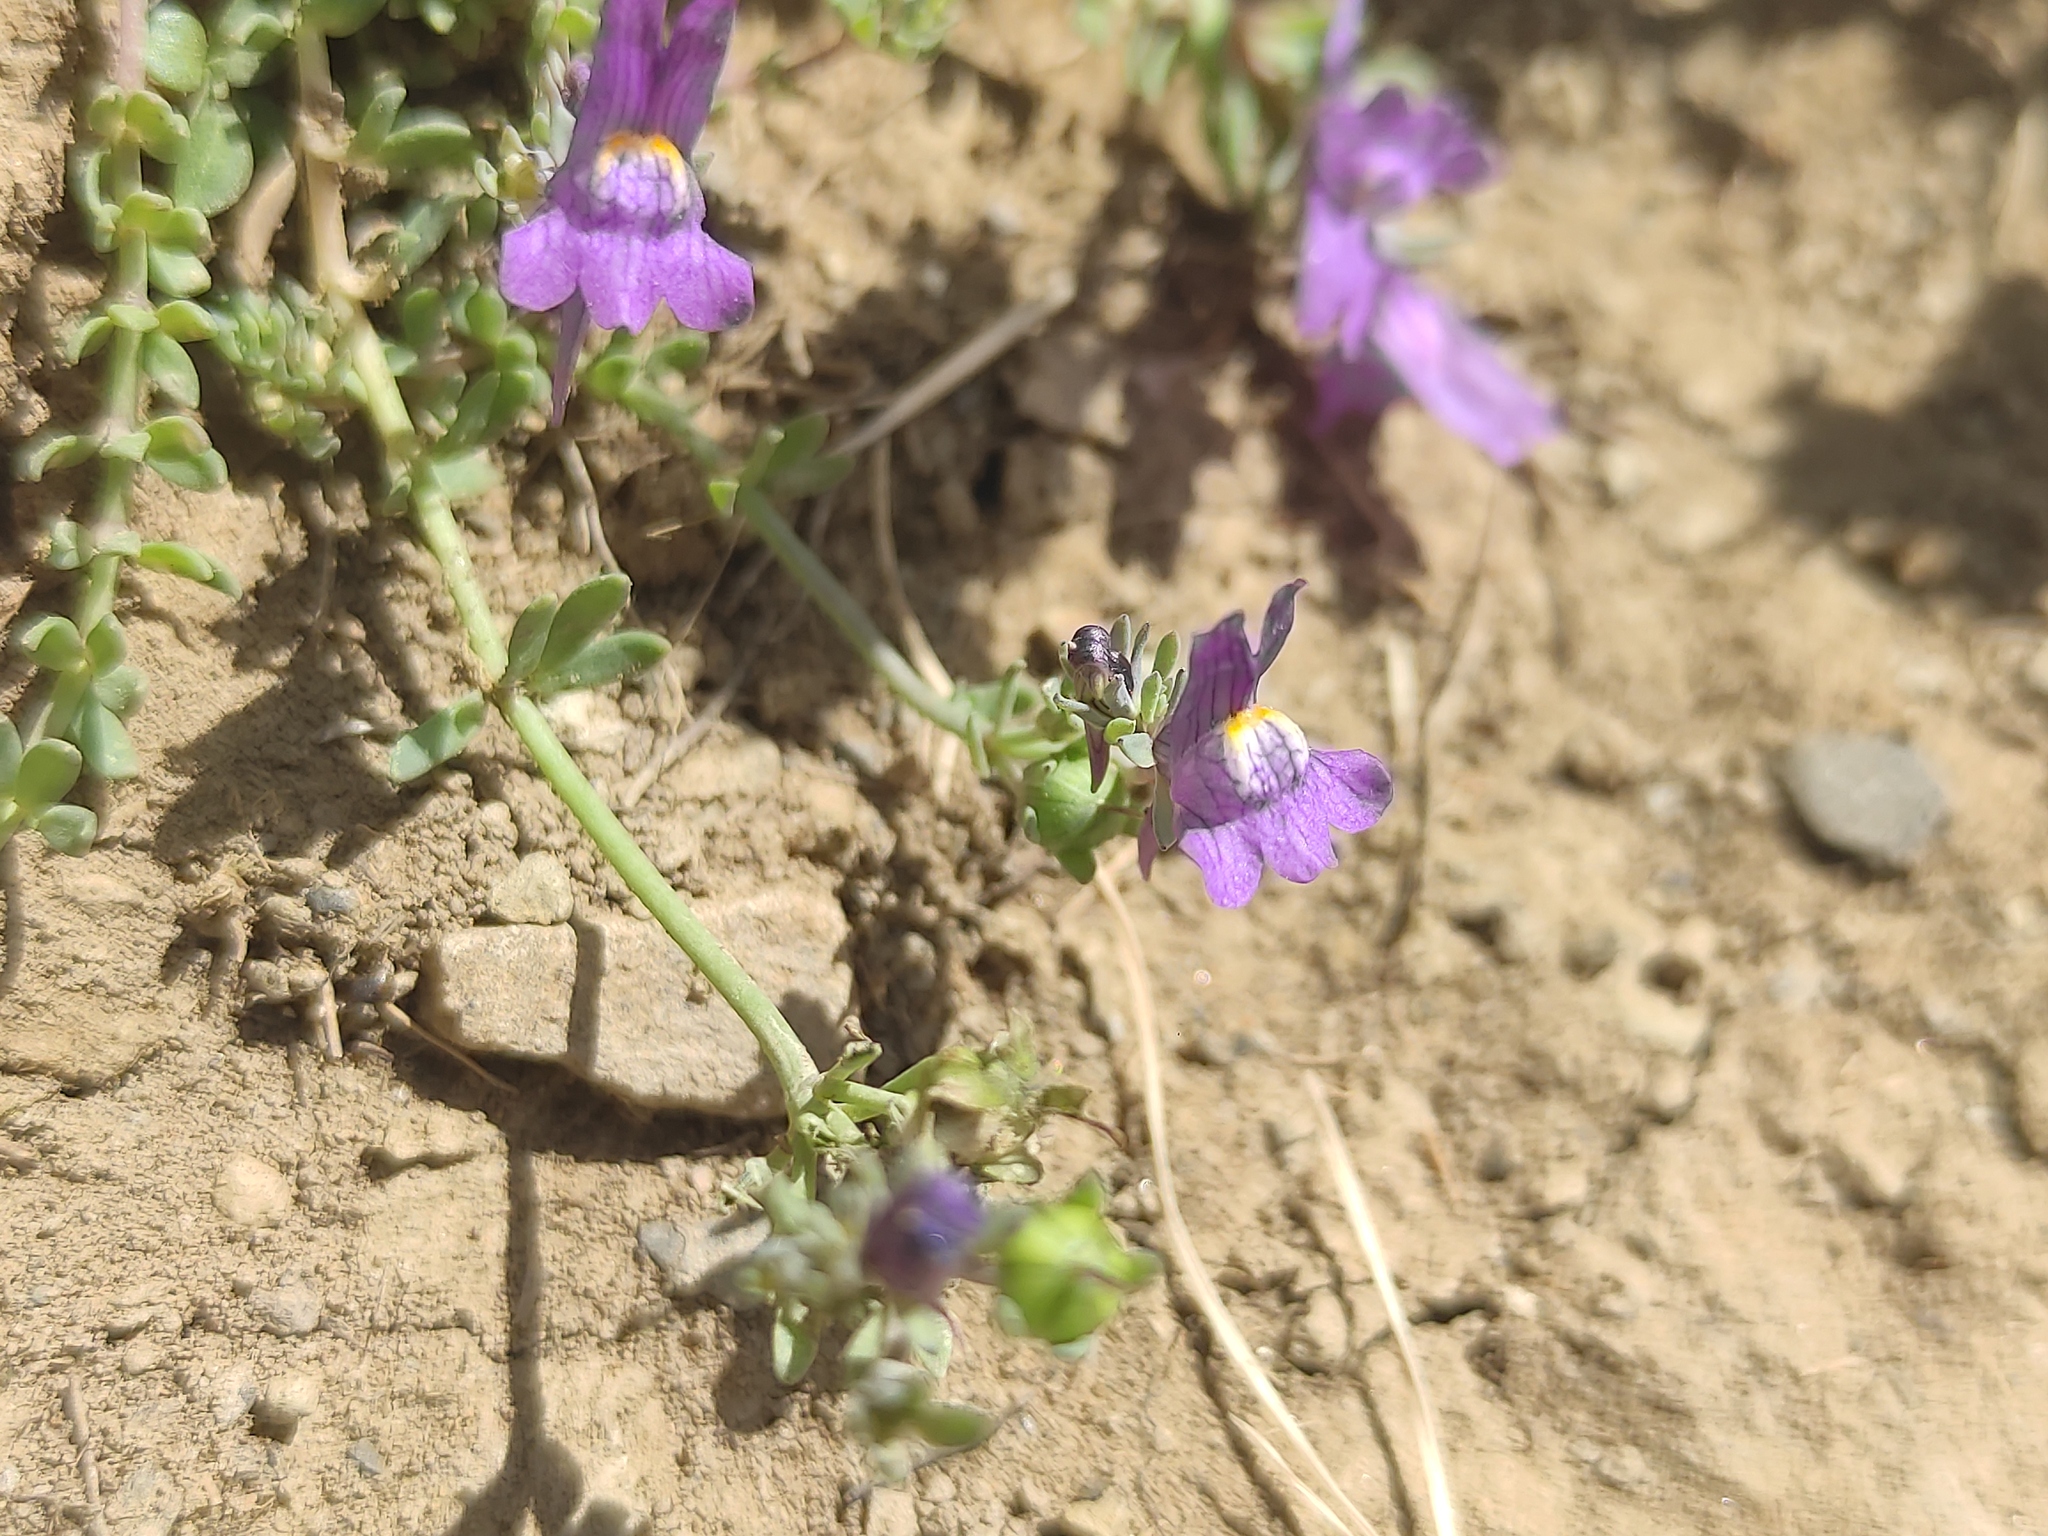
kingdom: Plantae
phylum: Tracheophyta
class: Magnoliopsida
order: Lamiales
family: Plantaginaceae
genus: Linaria
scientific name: Linaria alpina
